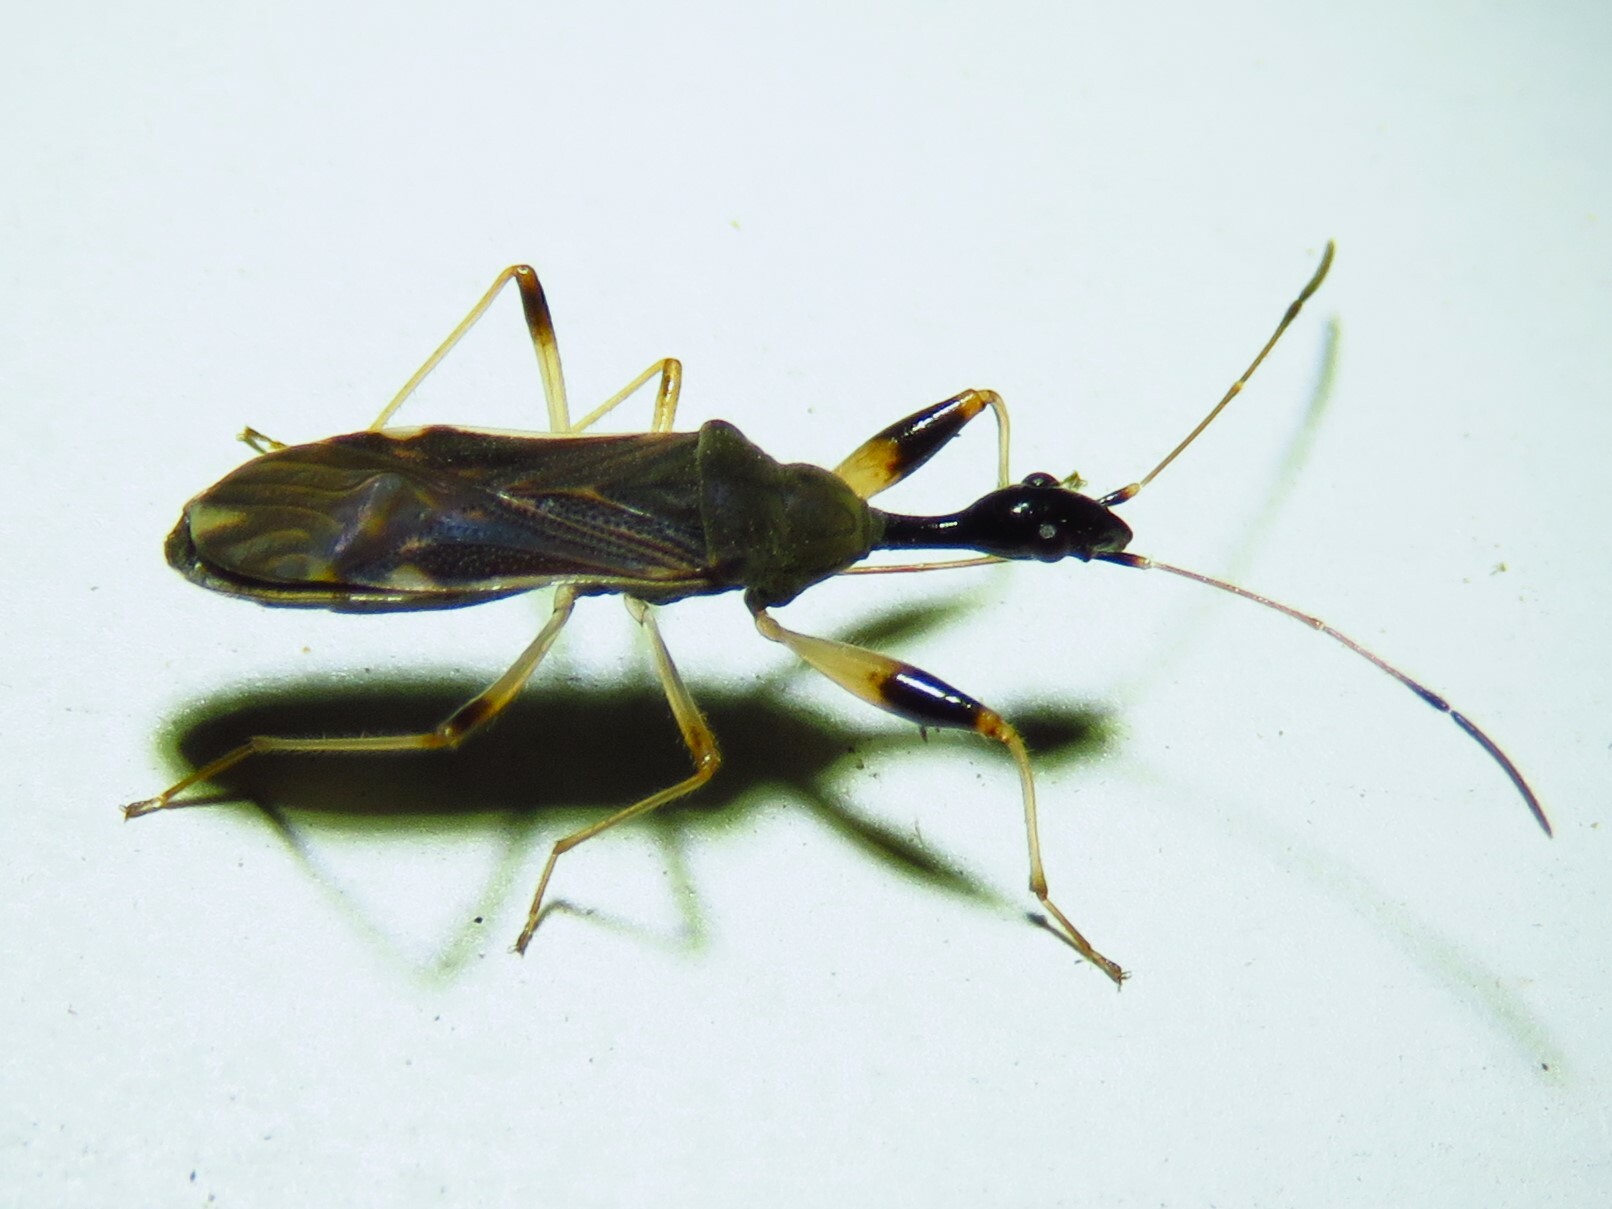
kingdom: Animalia
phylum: Arthropoda
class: Insecta
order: Hemiptera
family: Rhyparochromidae
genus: Myodocha
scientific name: Myodocha serripes
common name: Long-necked seed bug
